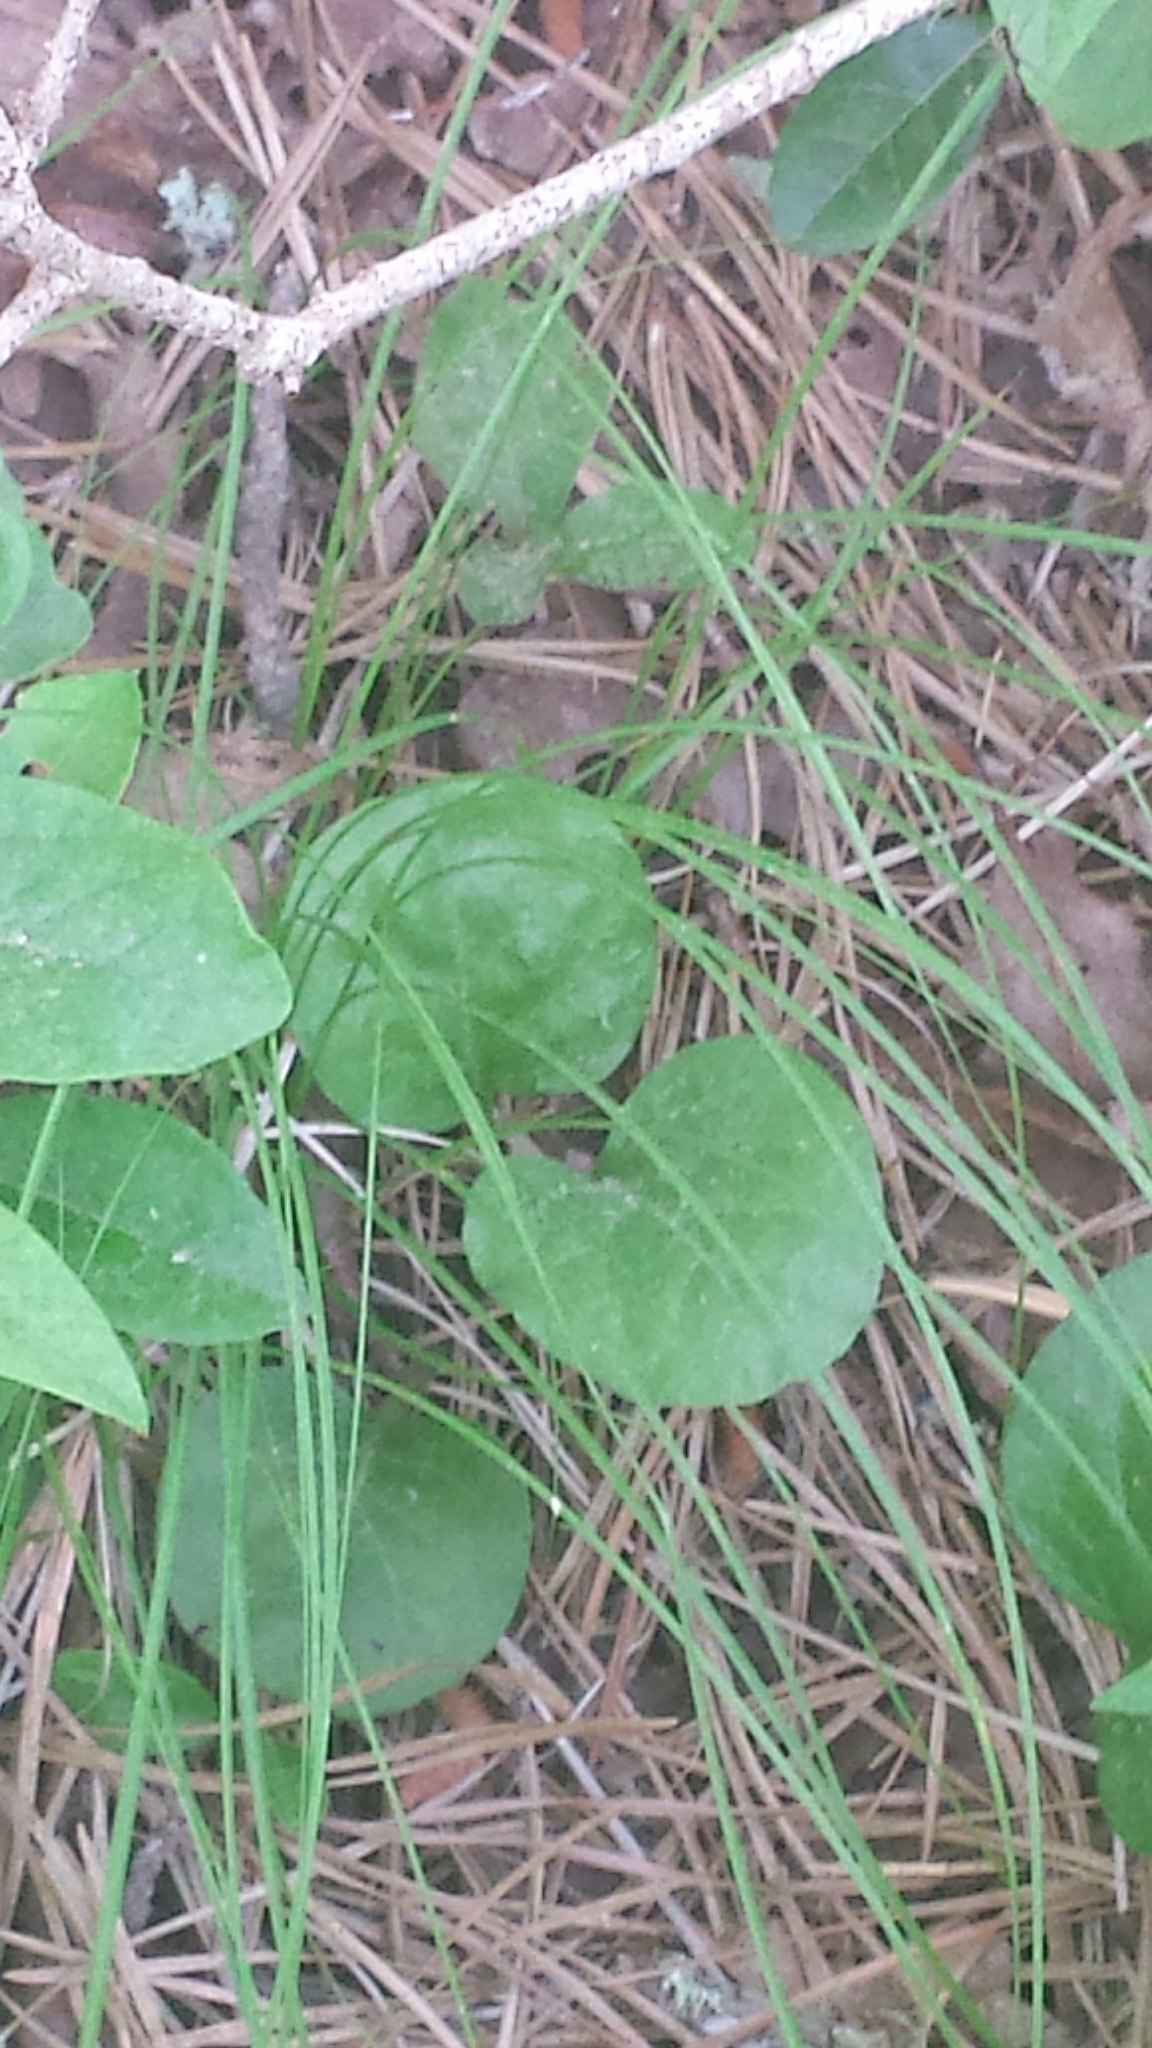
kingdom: Plantae
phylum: Tracheophyta
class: Magnoliopsida
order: Ericales
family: Ericaceae
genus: Pyrola
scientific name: Pyrola elliptica
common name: Shinleaf
